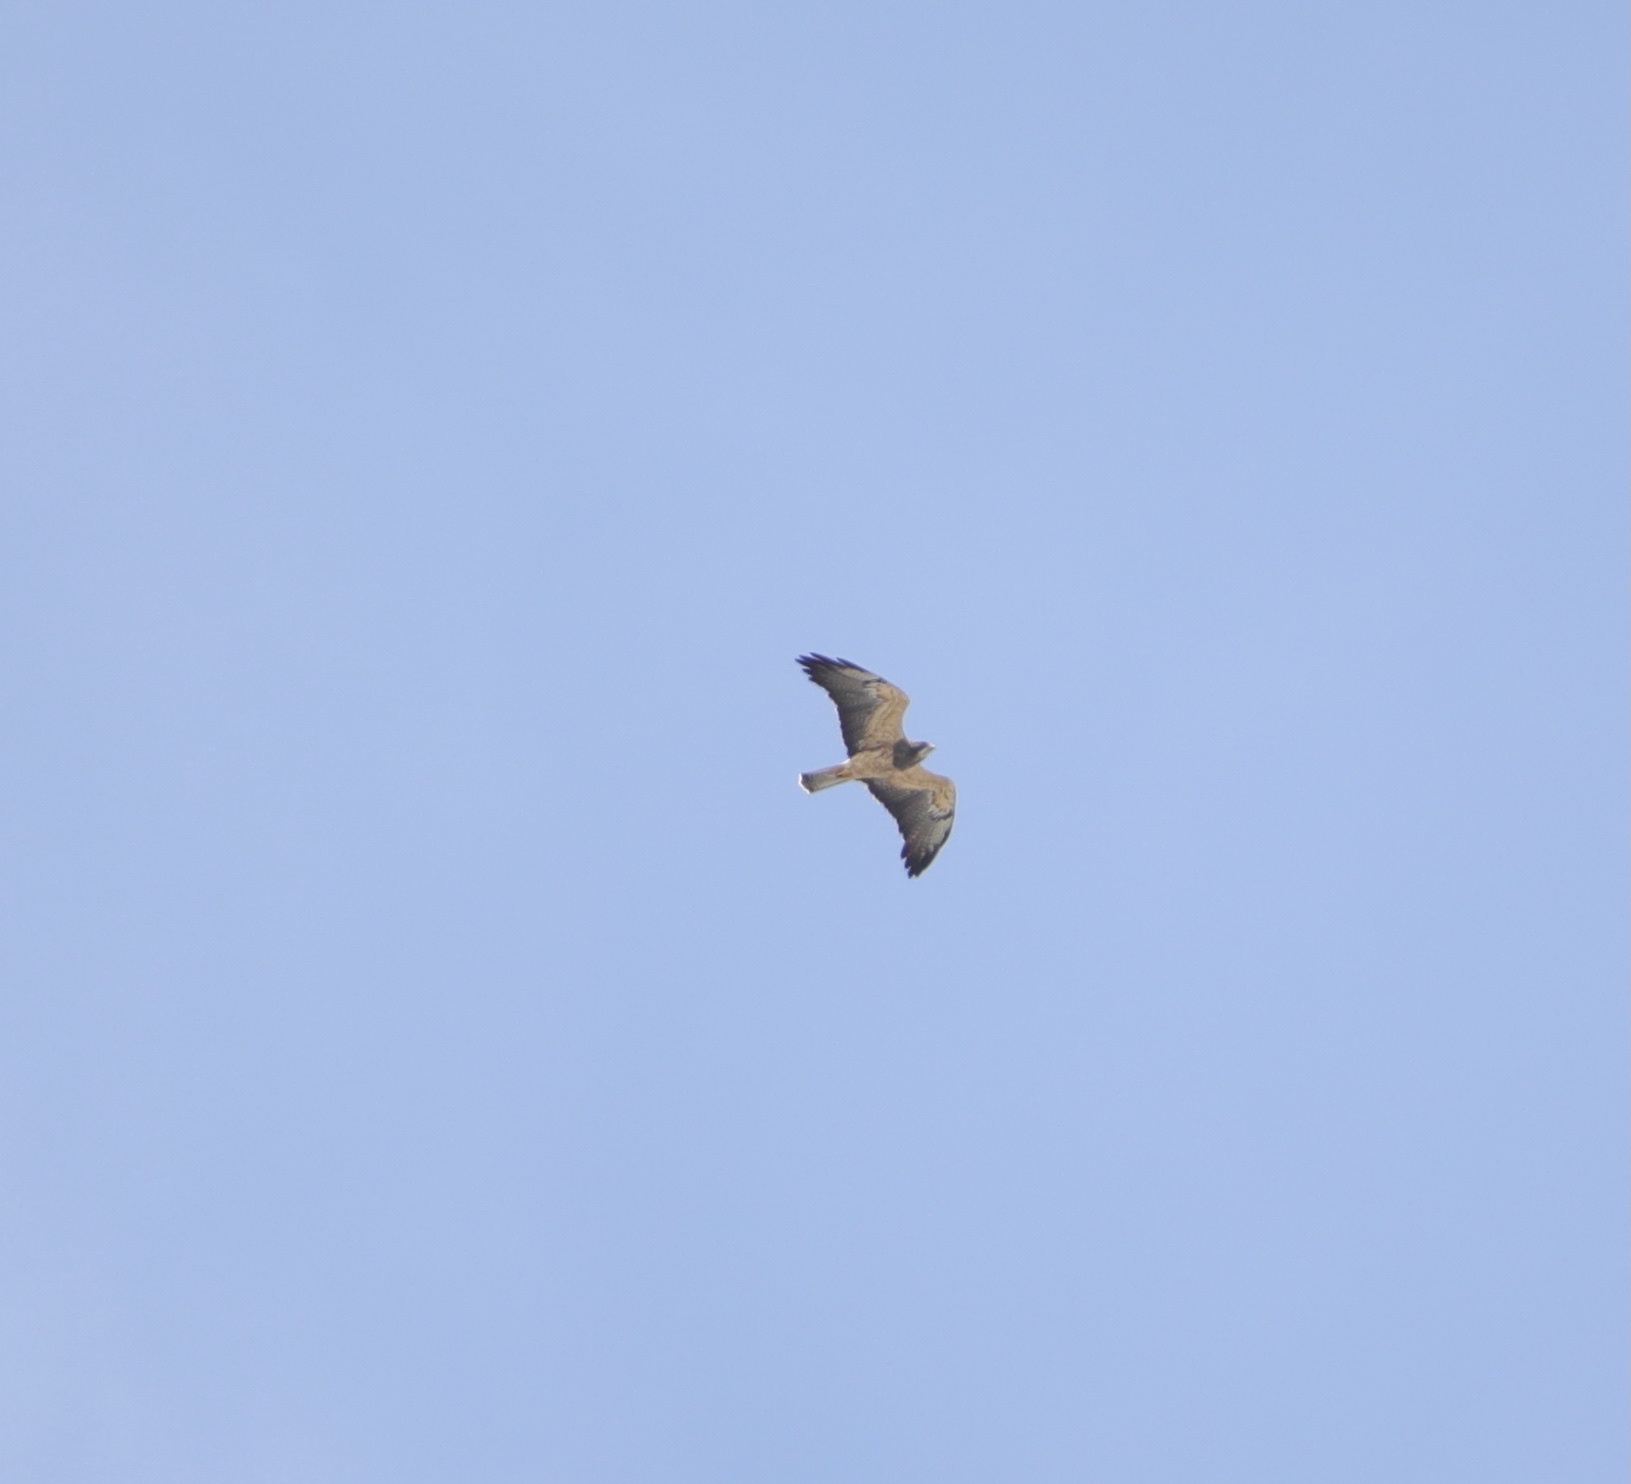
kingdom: Animalia
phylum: Chordata
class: Aves
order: Accipitriformes
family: Accipitridae
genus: Buteo
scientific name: Buteo swainsoni
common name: Swainson's hawk
